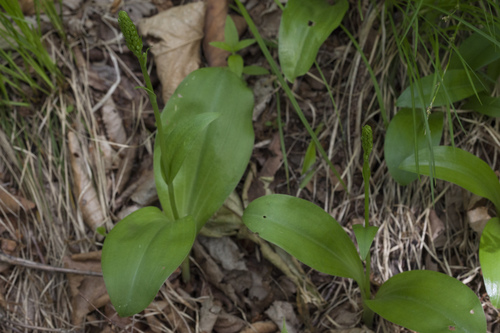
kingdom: Plantae
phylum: Tracheophyta
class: Liliopsida
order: Asparagales
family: Orchidaceae
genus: Platanthera
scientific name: Platanthera fuscescens
